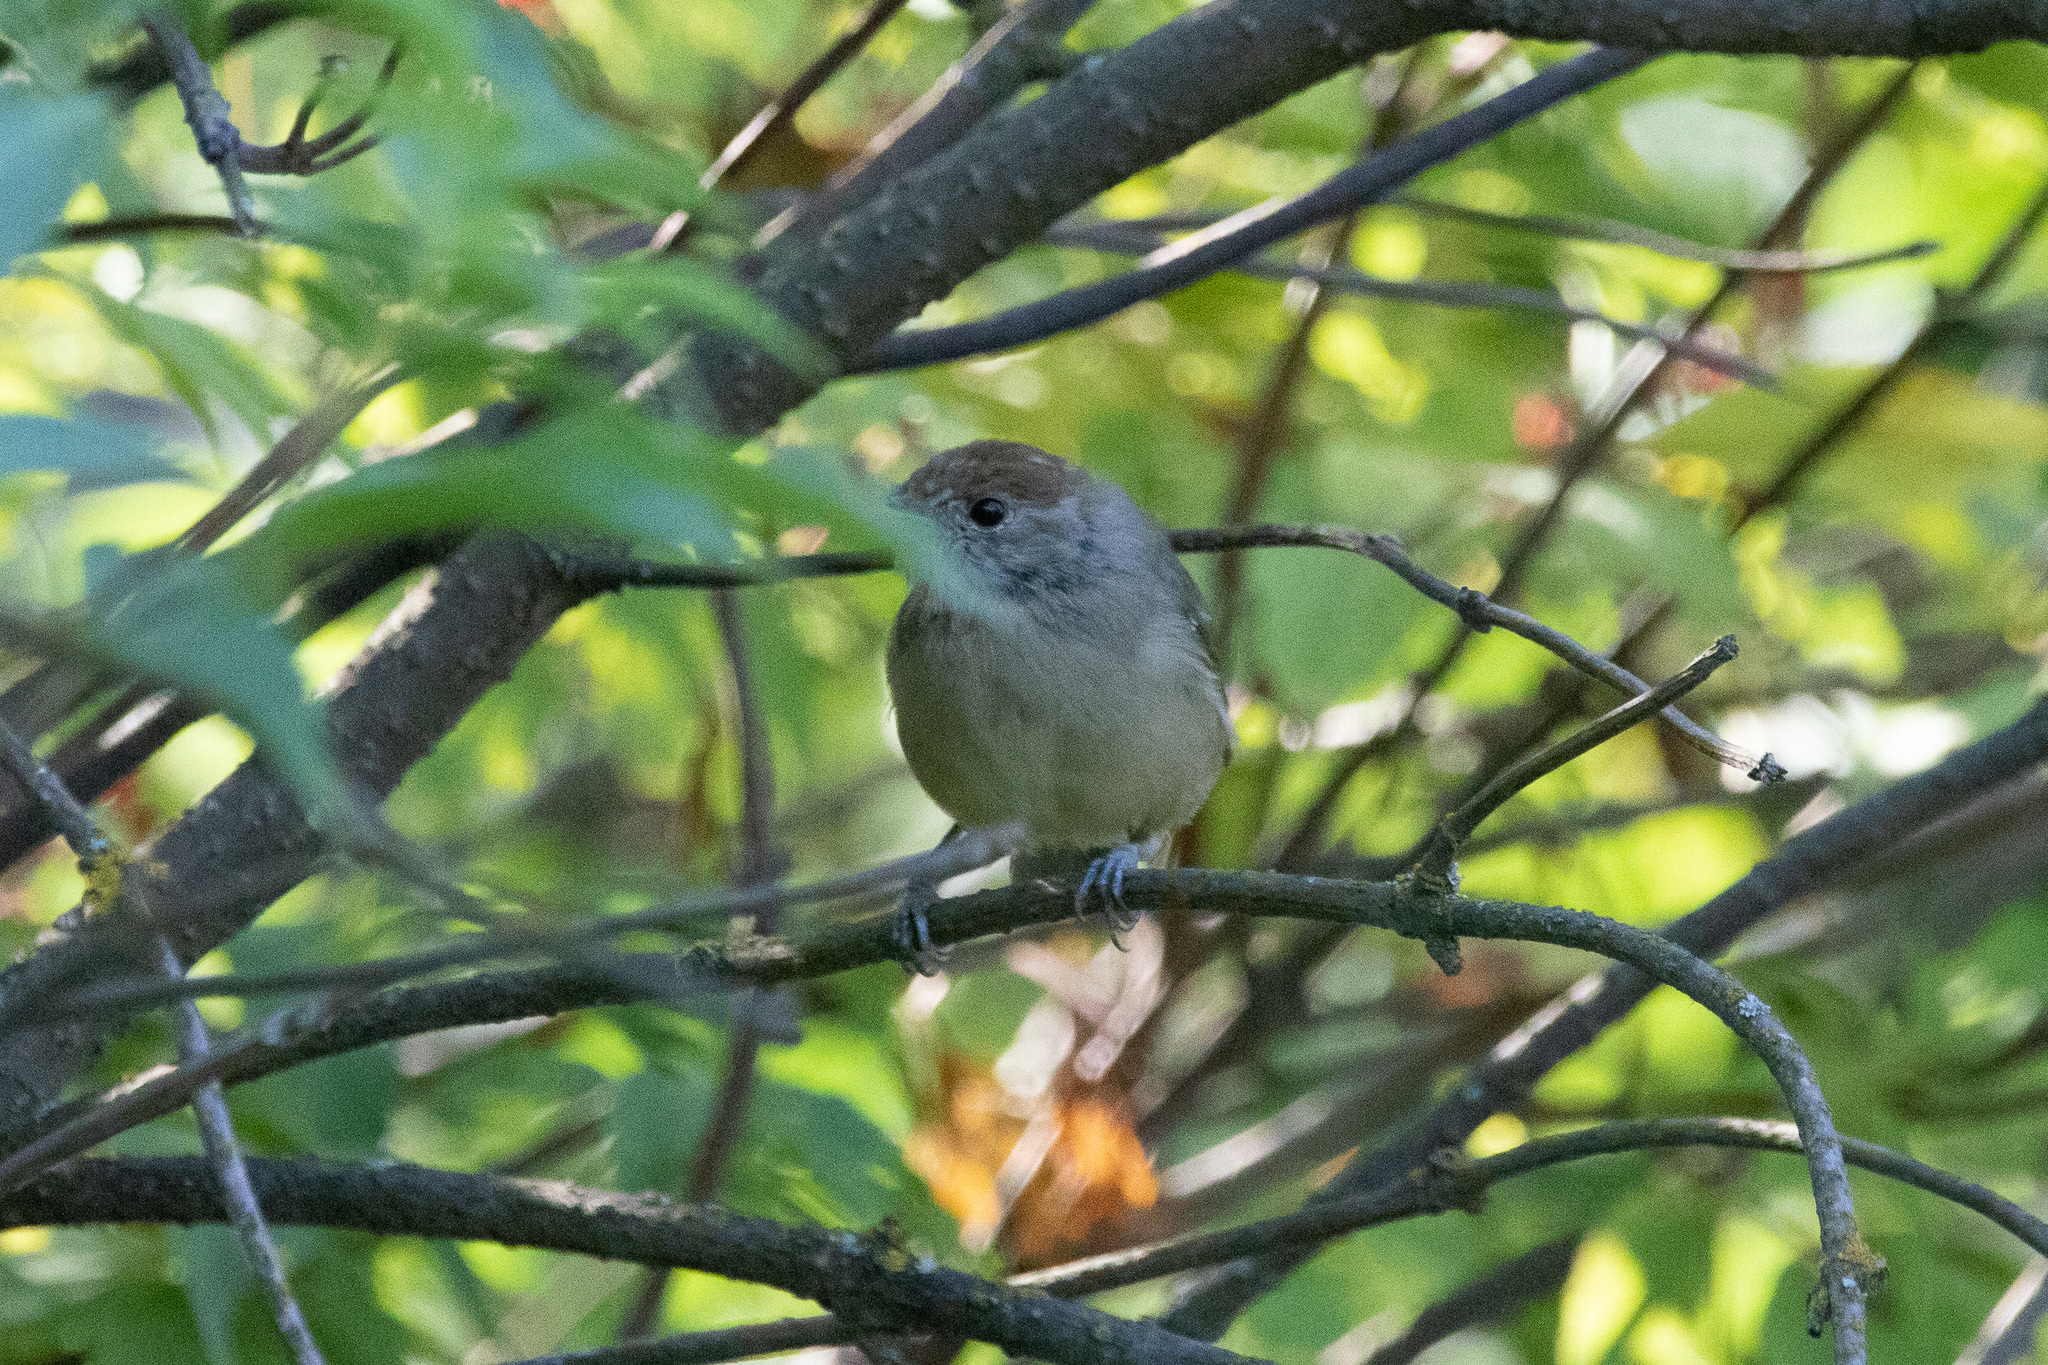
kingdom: Animalia
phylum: Chordata
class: Aves
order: Passeriformes
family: Sylviidae
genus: Sylvia
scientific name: Sylvia atricapilla
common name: Eurasian blackcap
